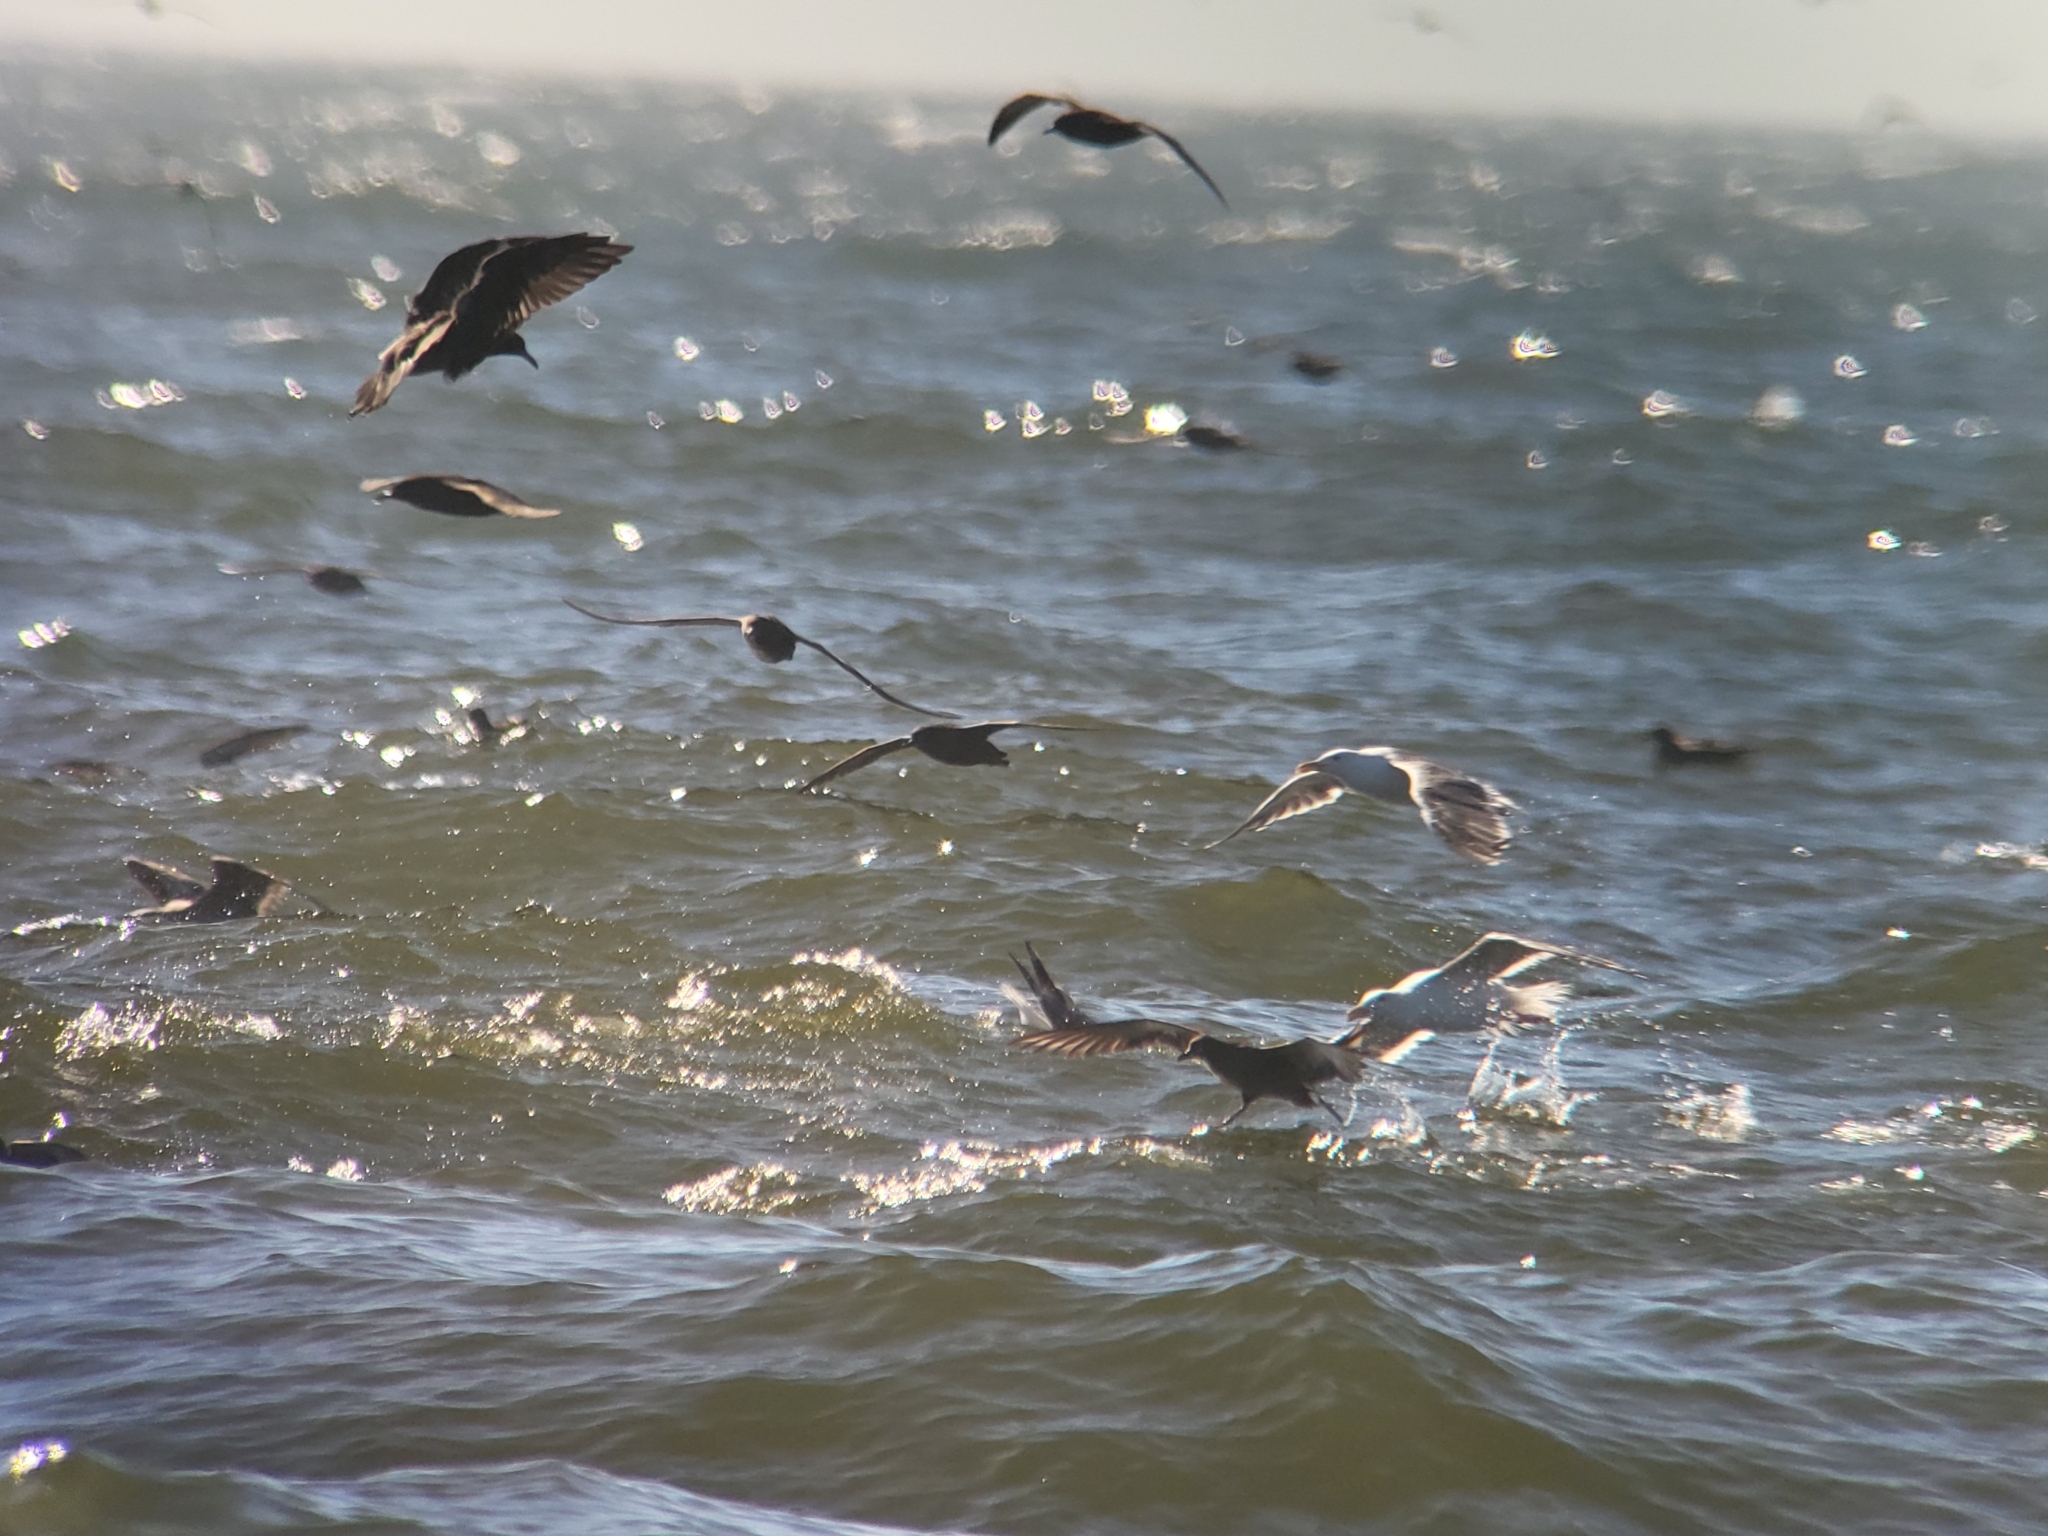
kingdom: Animalia
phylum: Chordata
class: Aves
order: Procellariiformes
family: Procellariidae
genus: Puffinus
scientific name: Puffinus griseus
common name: Sooty shearwater
